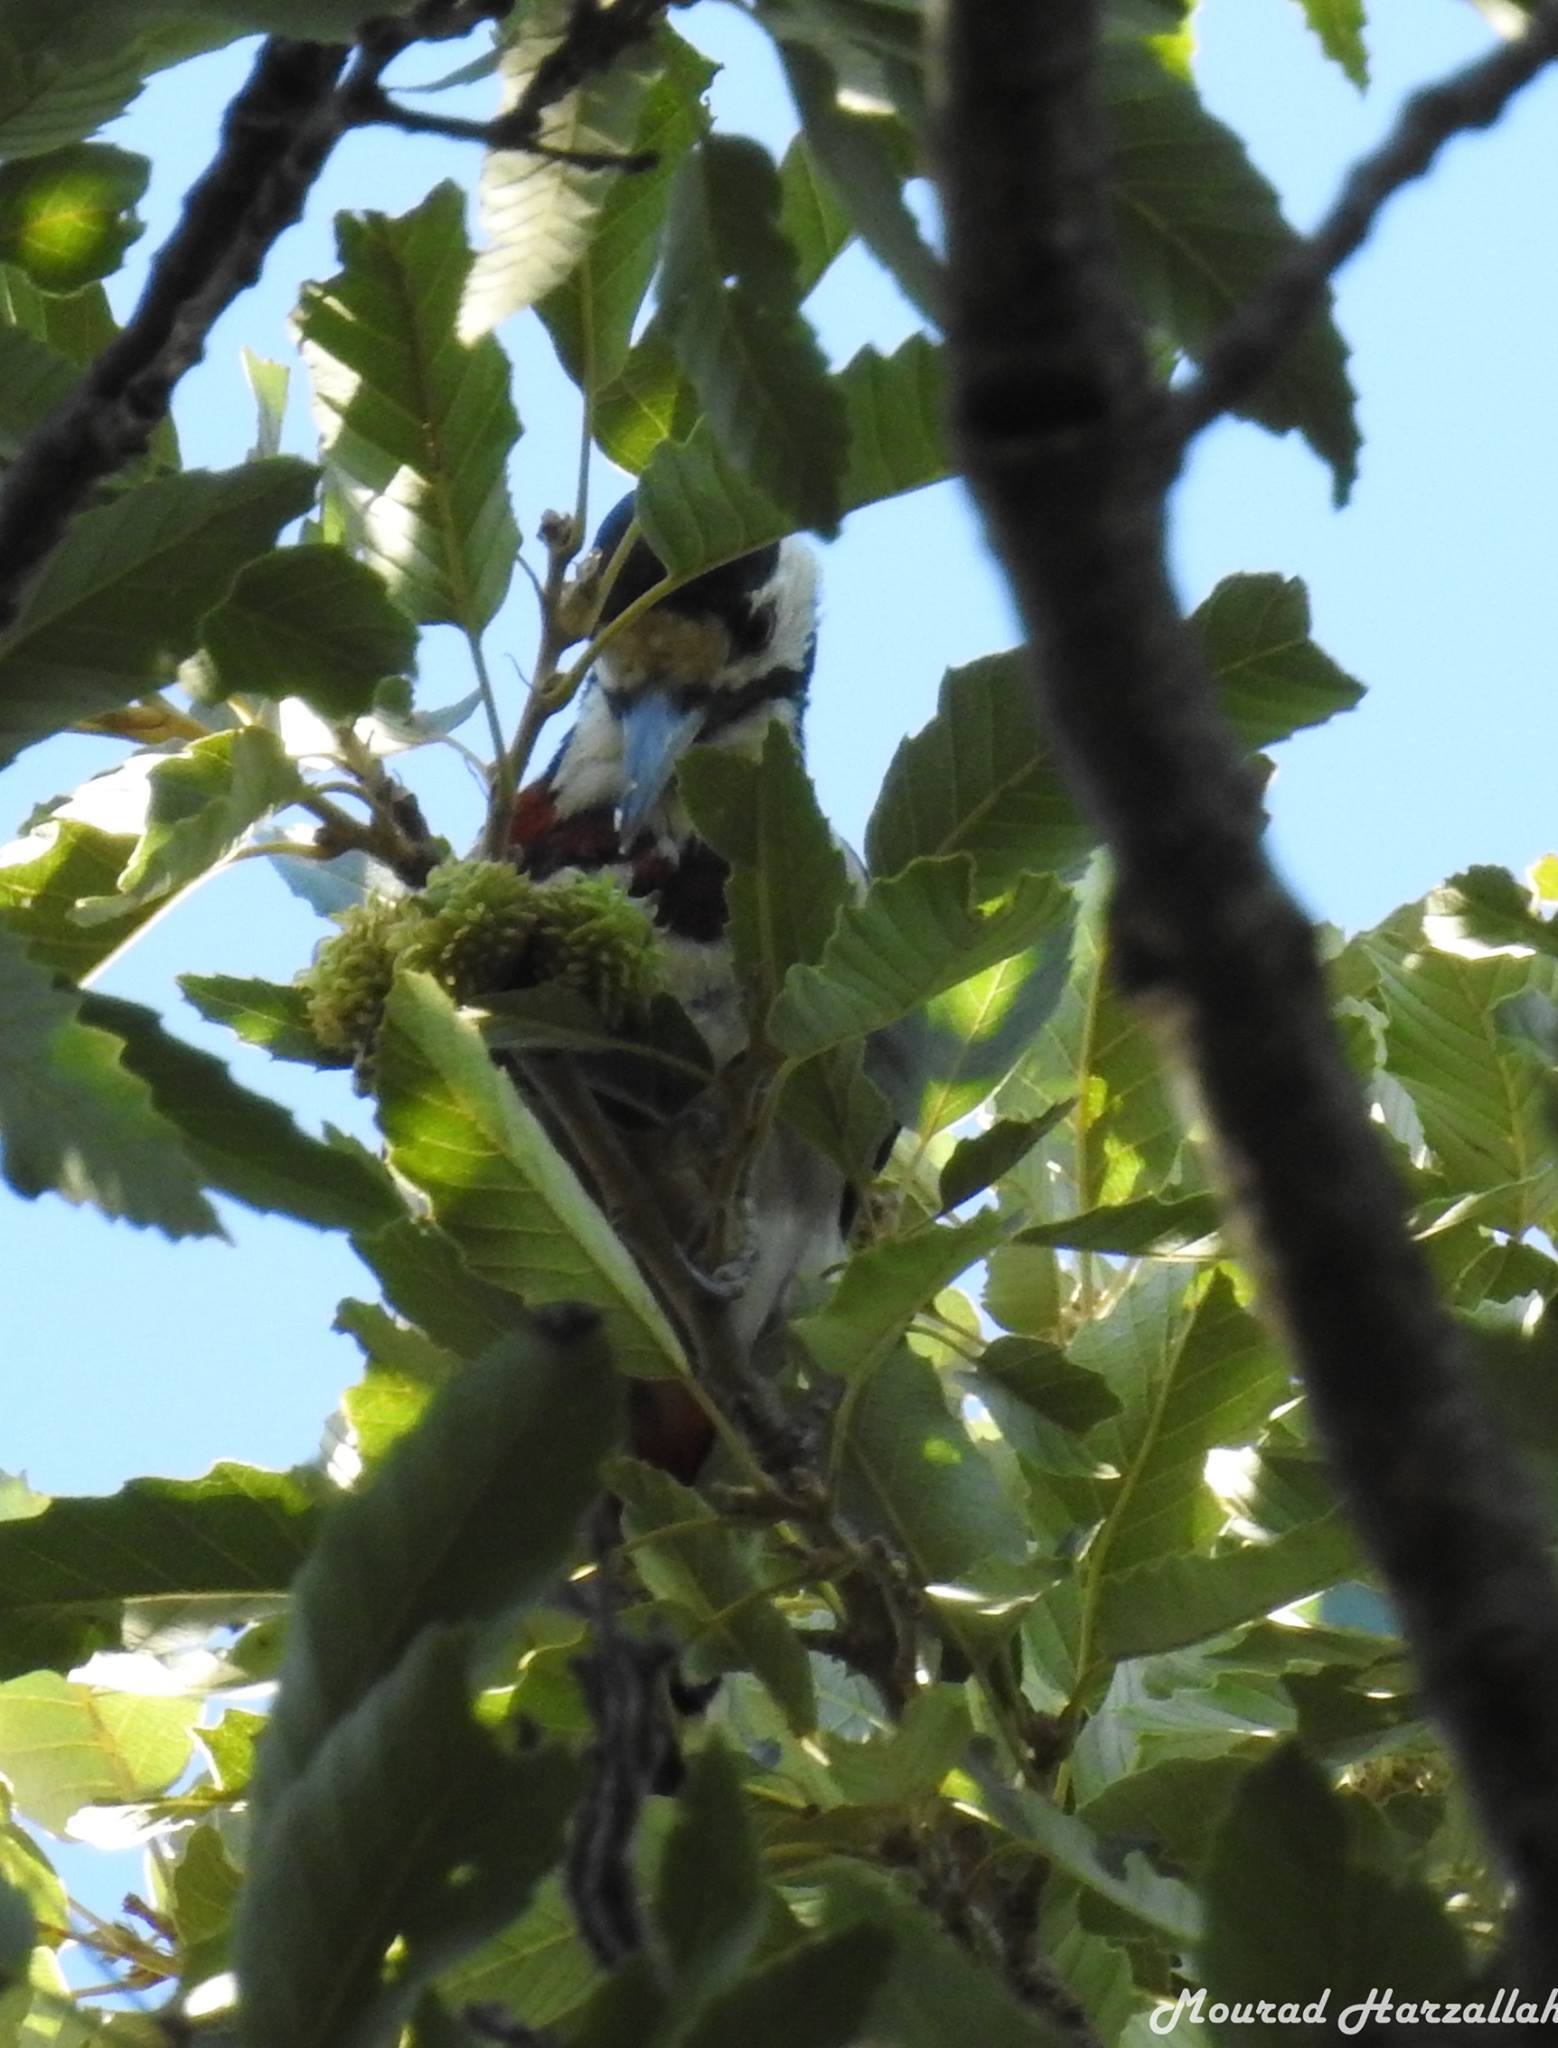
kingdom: Animalia
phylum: Chordata
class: Aves
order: Piciformes
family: Picidae
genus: Dendrocopos
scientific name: Dendrocopos major
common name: Great spotted woodpecker
